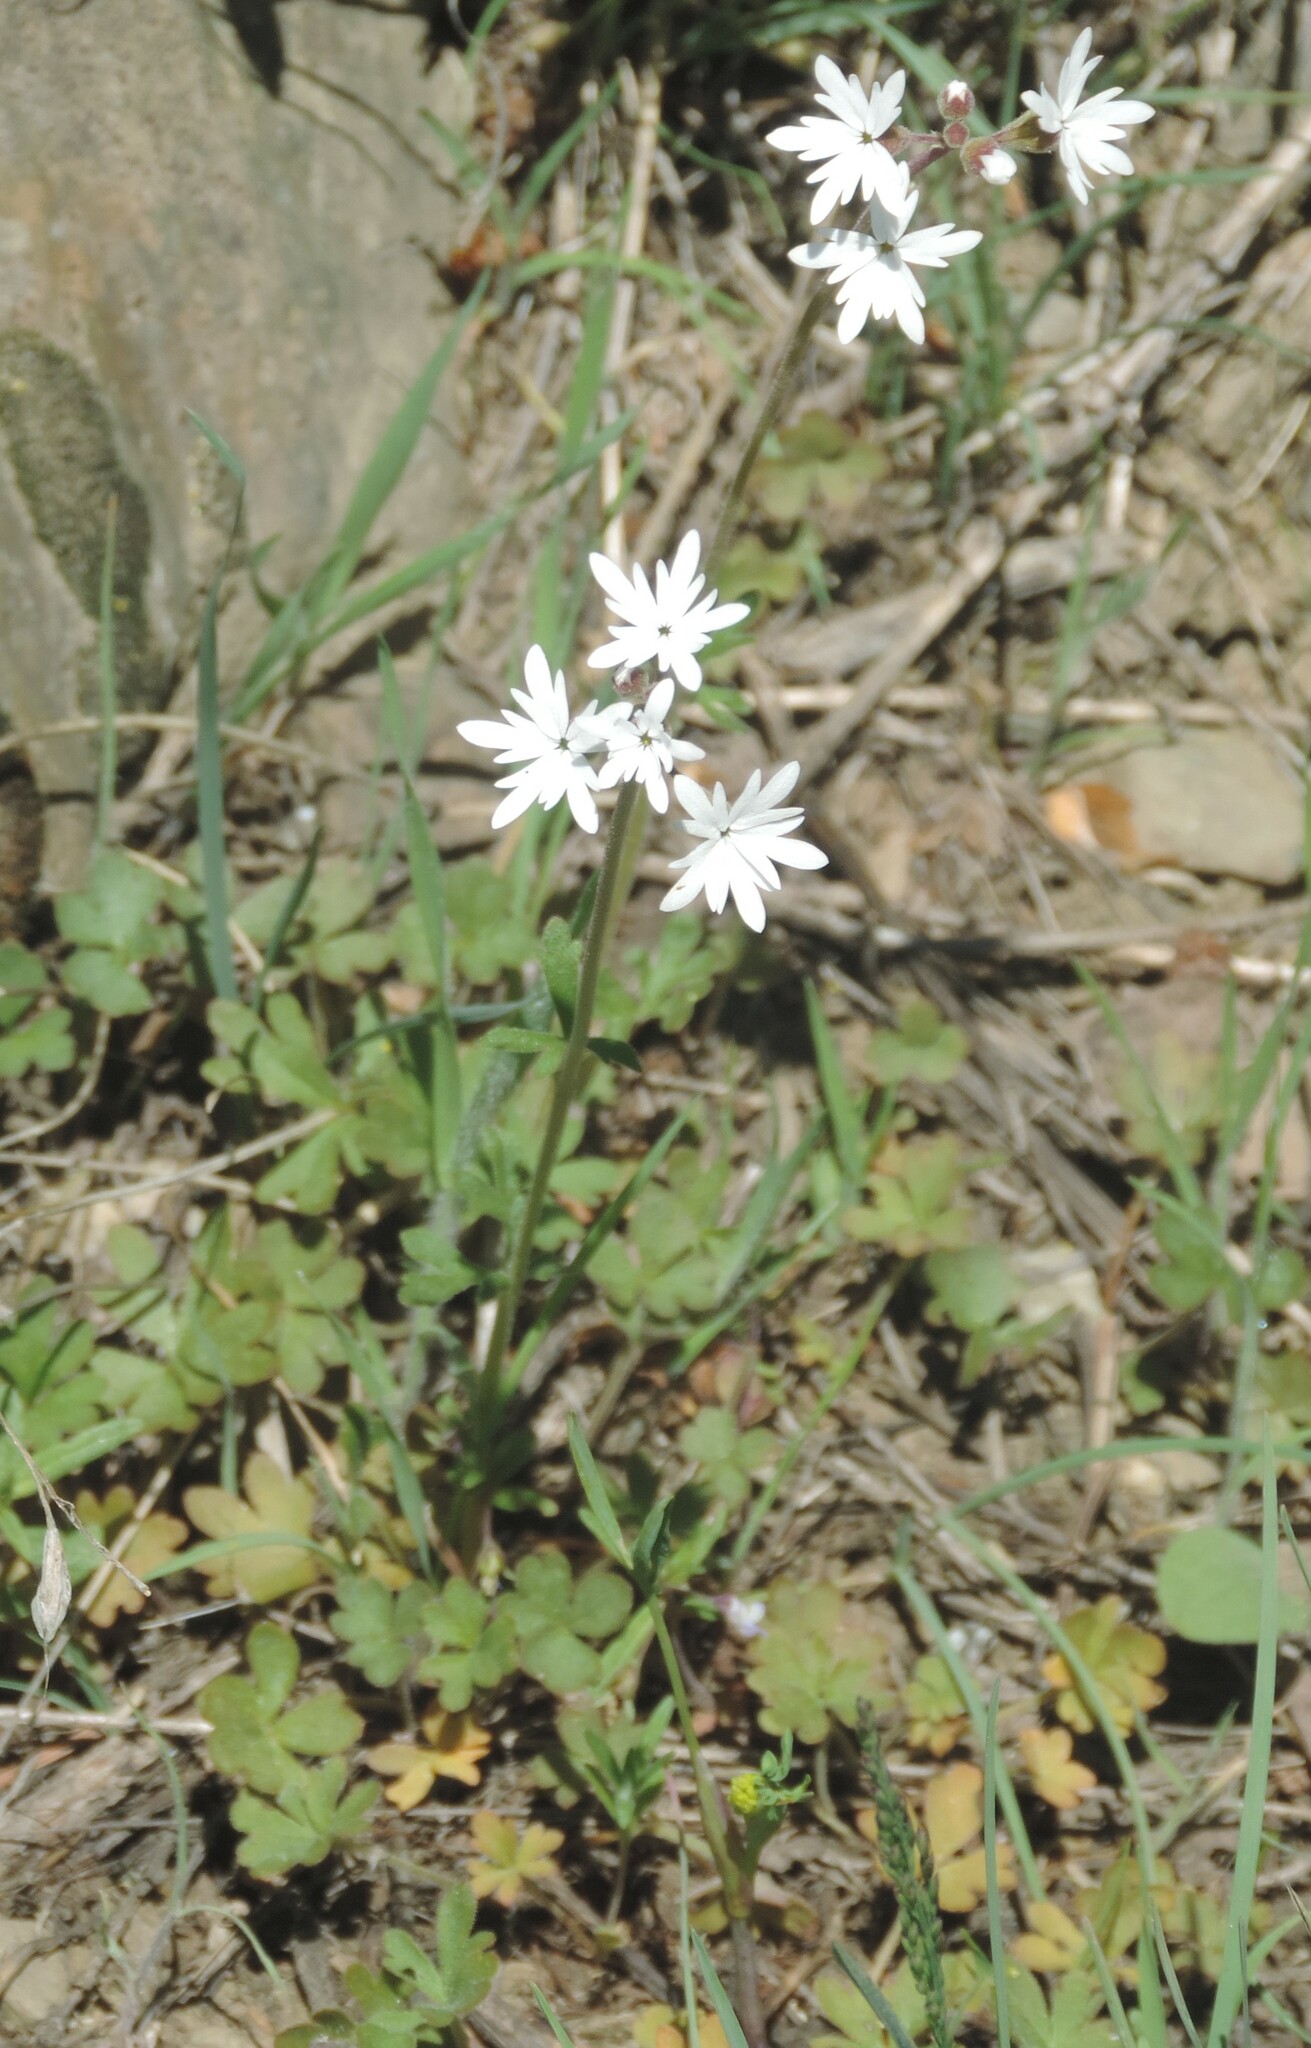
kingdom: Plantae
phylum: Tracheophyta
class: Magnoliopsida
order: Saxifragales
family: Saxifragaceae
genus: Lithophragma
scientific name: Lithophragma parviflorum
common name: Small-flowered fringe-cup
